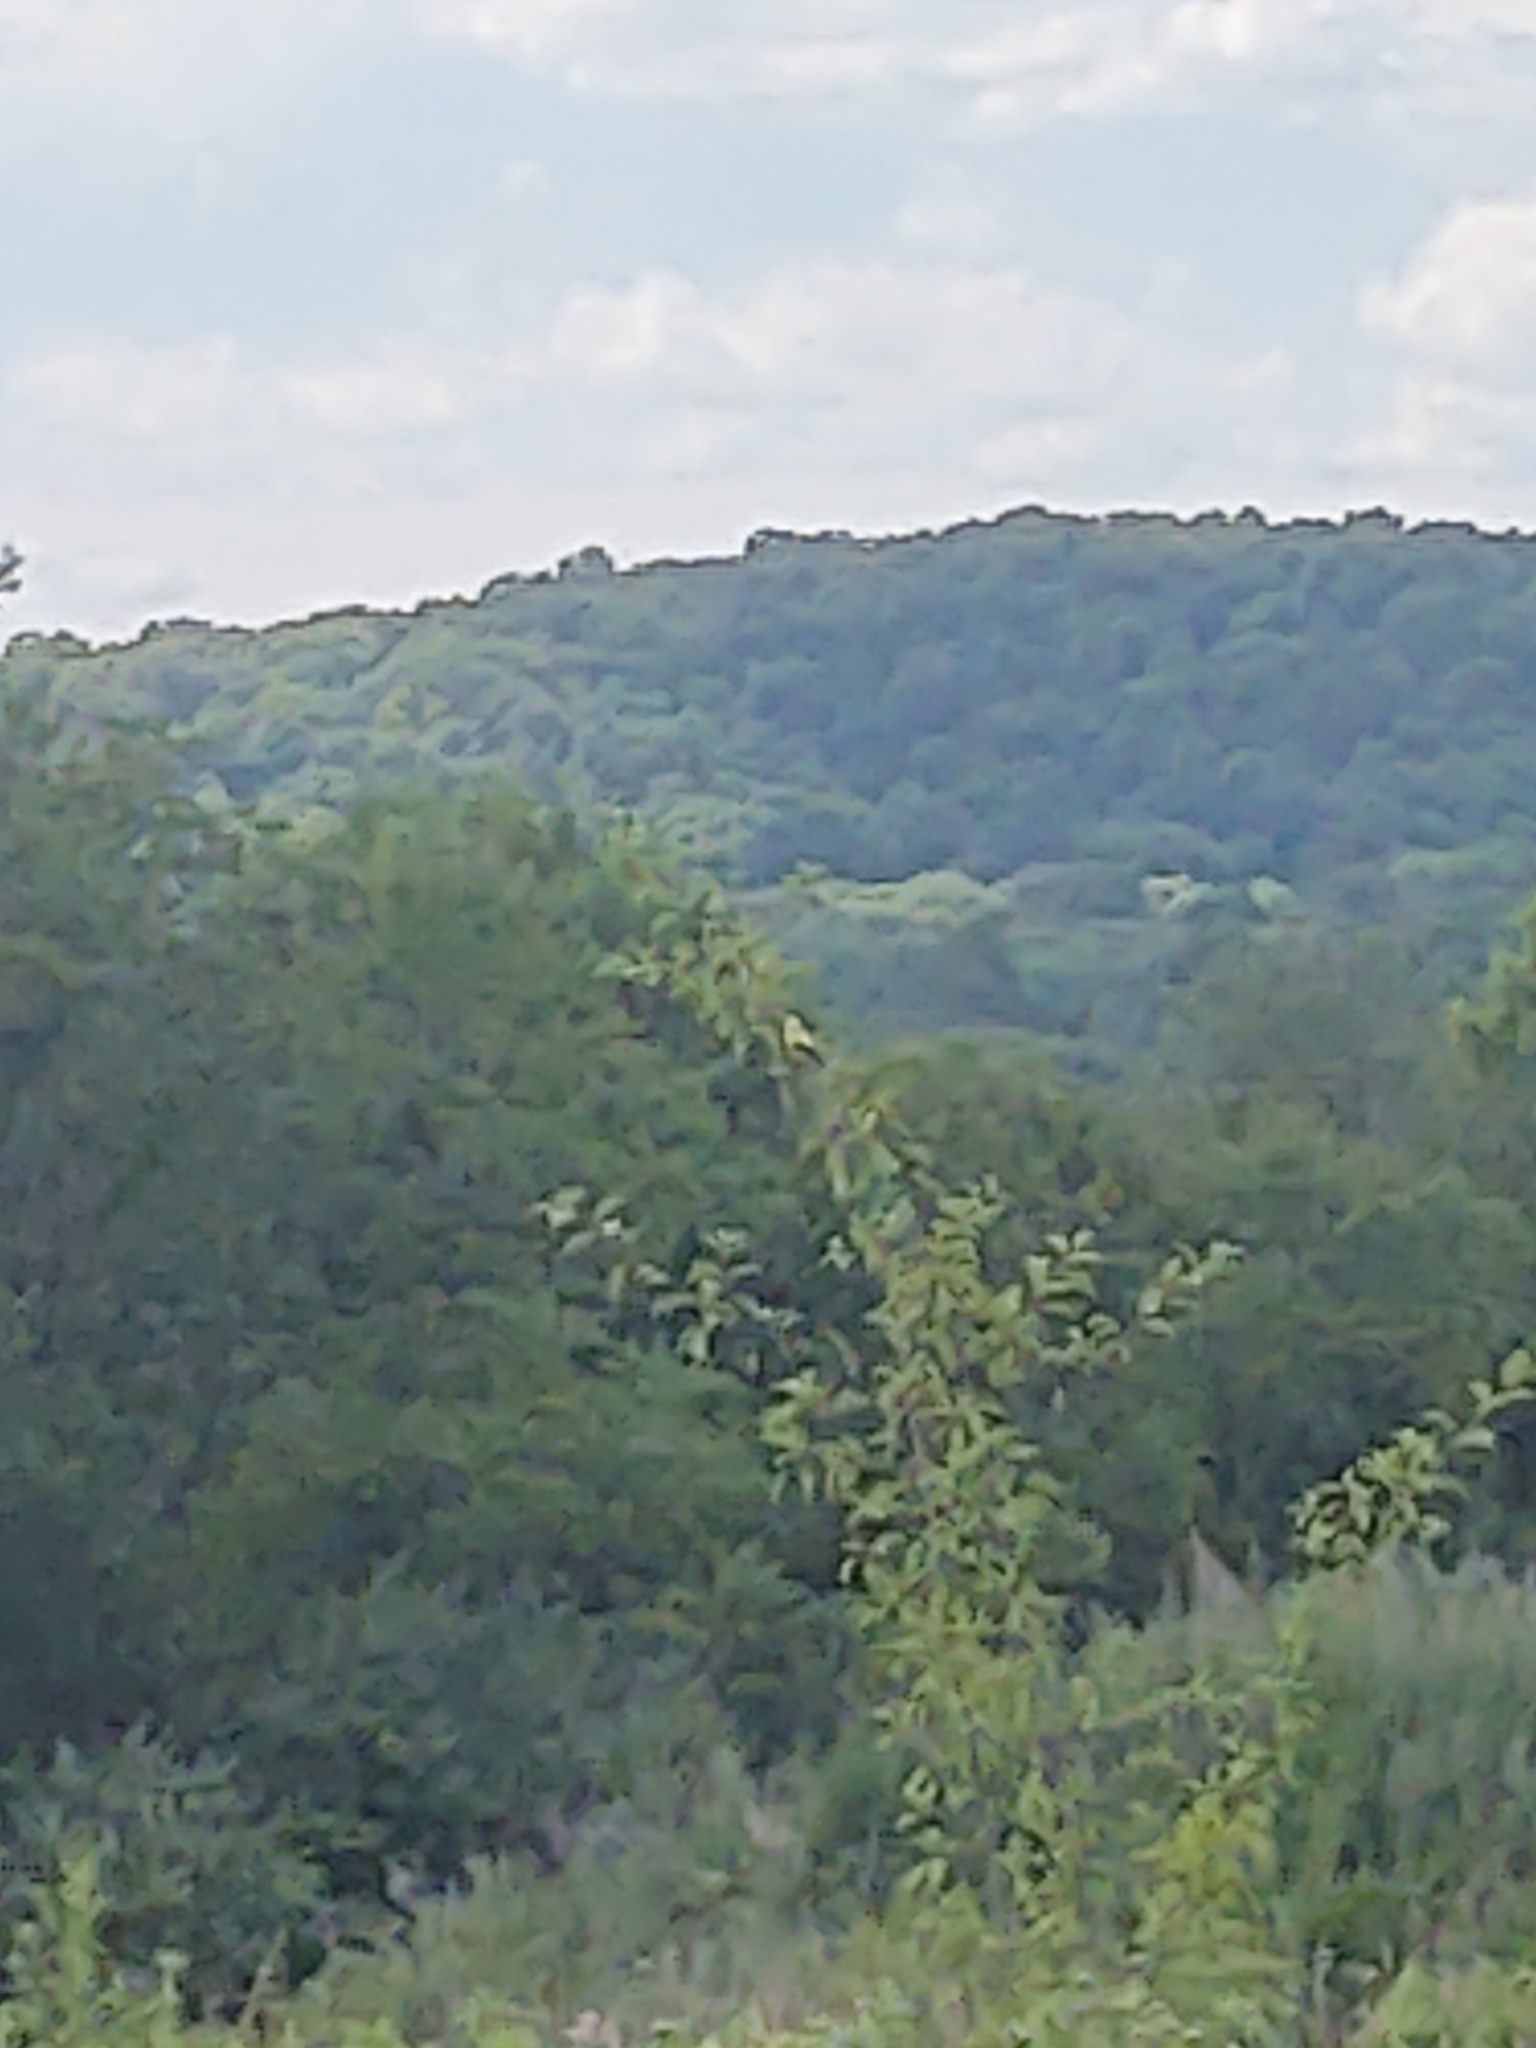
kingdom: Animalia
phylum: Chordata
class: Aves
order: Passeriformes
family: Fringillidae
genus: Spinus
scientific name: Spinus tristis
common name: American goldfinch
